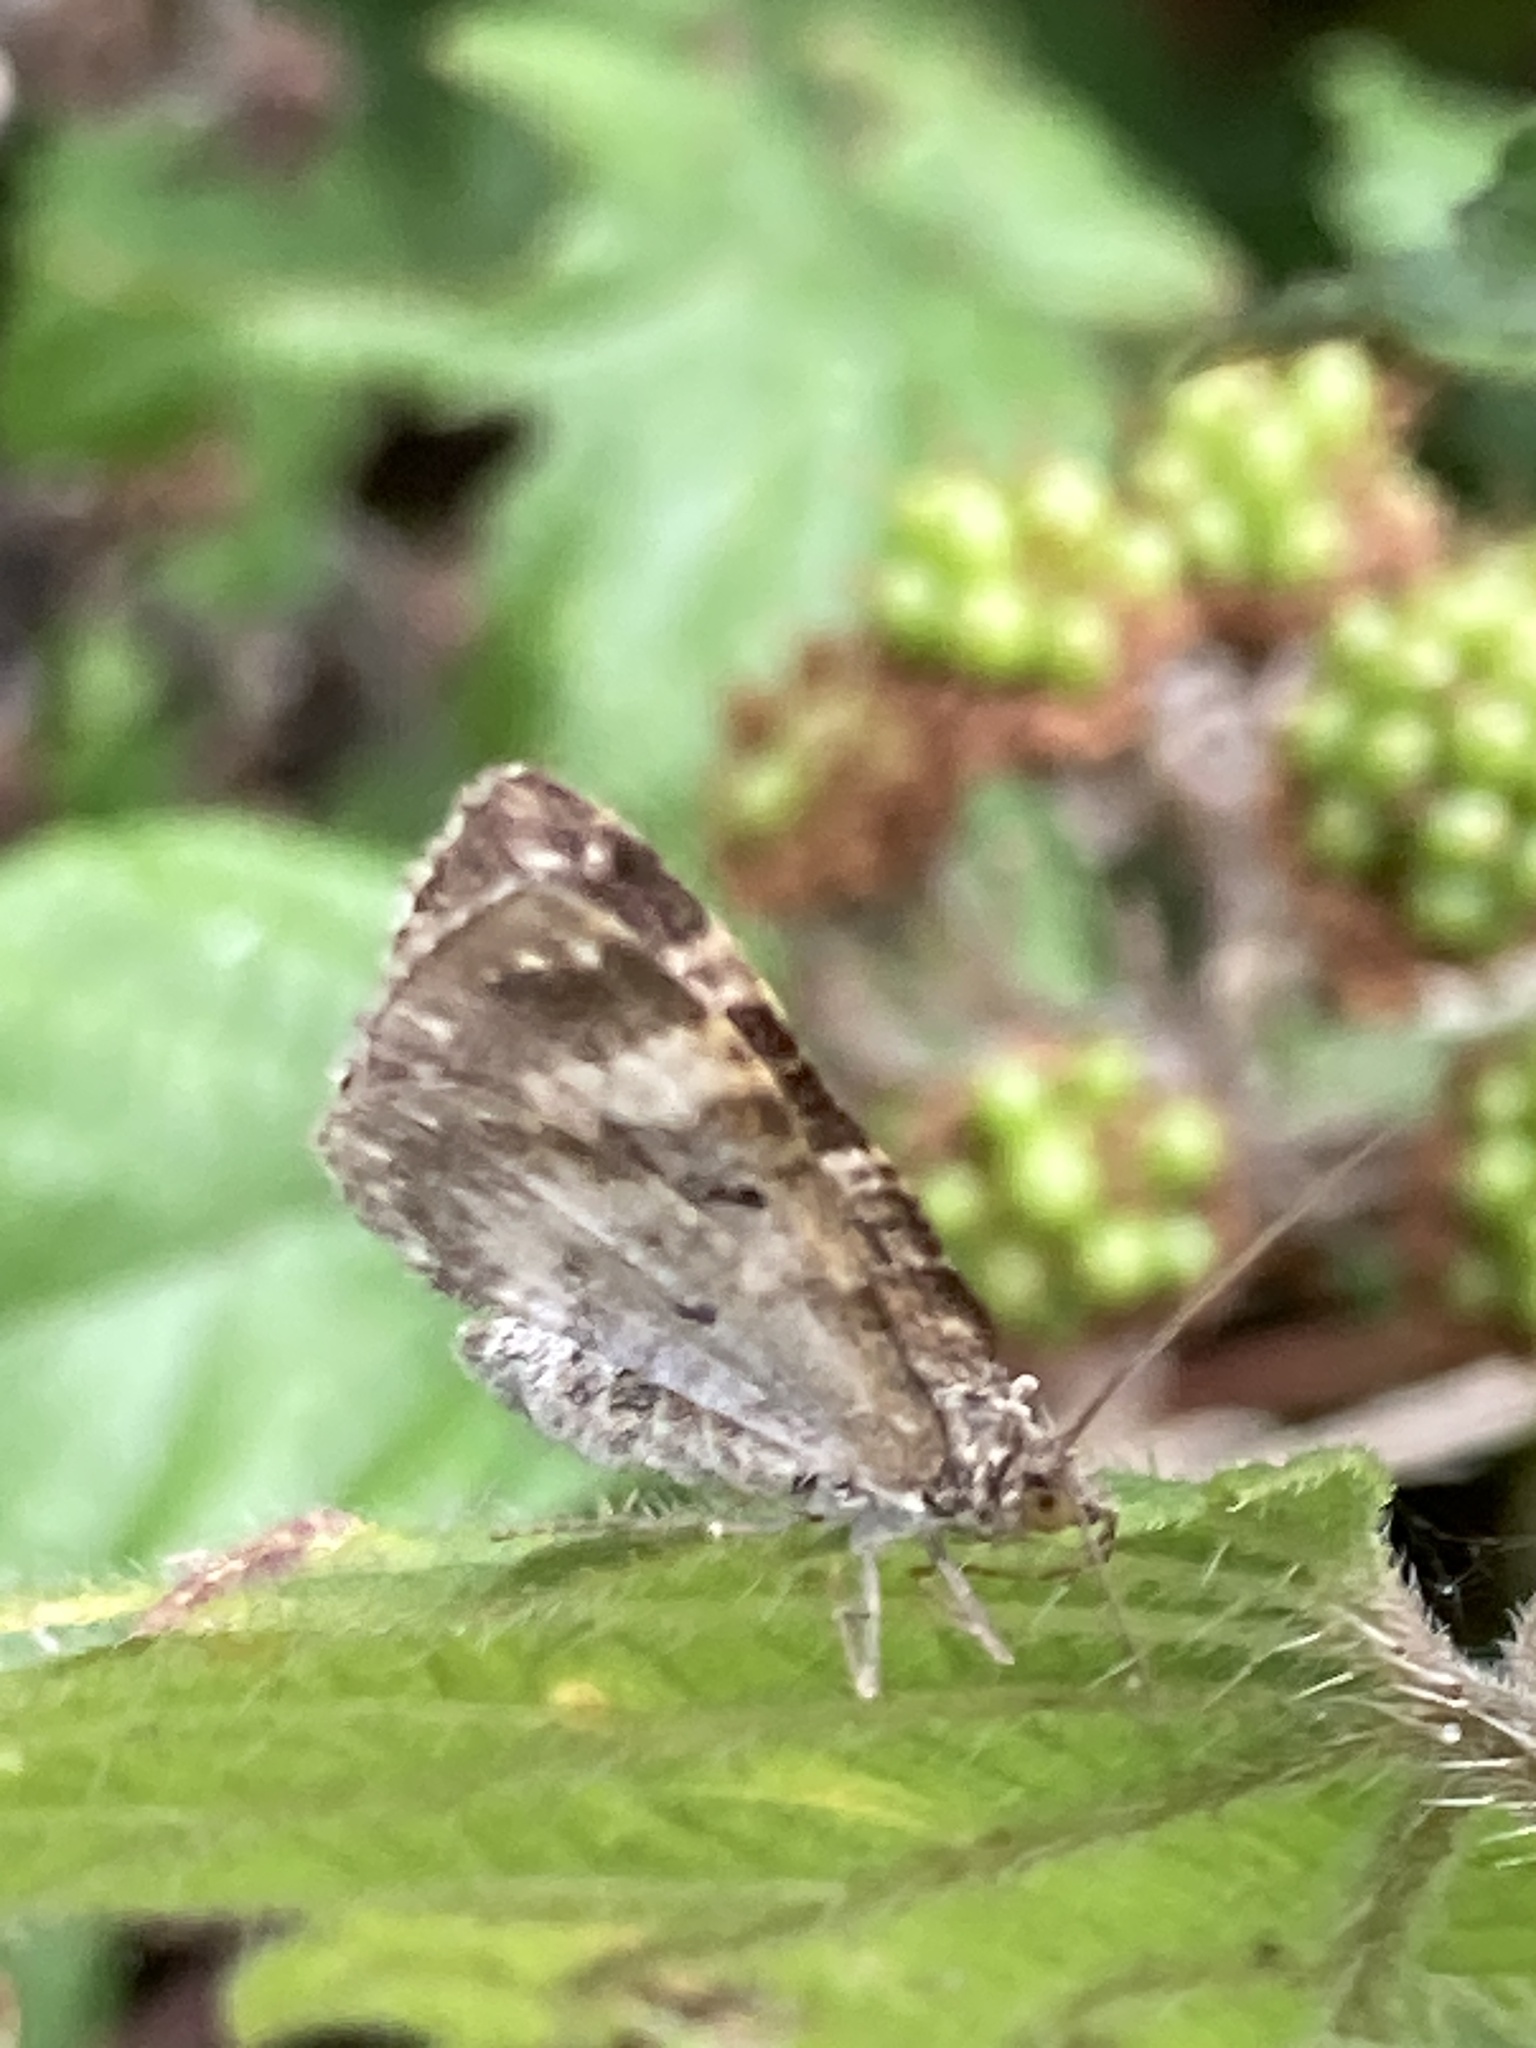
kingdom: Animalia
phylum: Arthropoda
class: Insecta
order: Lepidoptera
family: Geometridae
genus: Epirrhoe
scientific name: Epirrhoe alternata
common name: Common carpet
